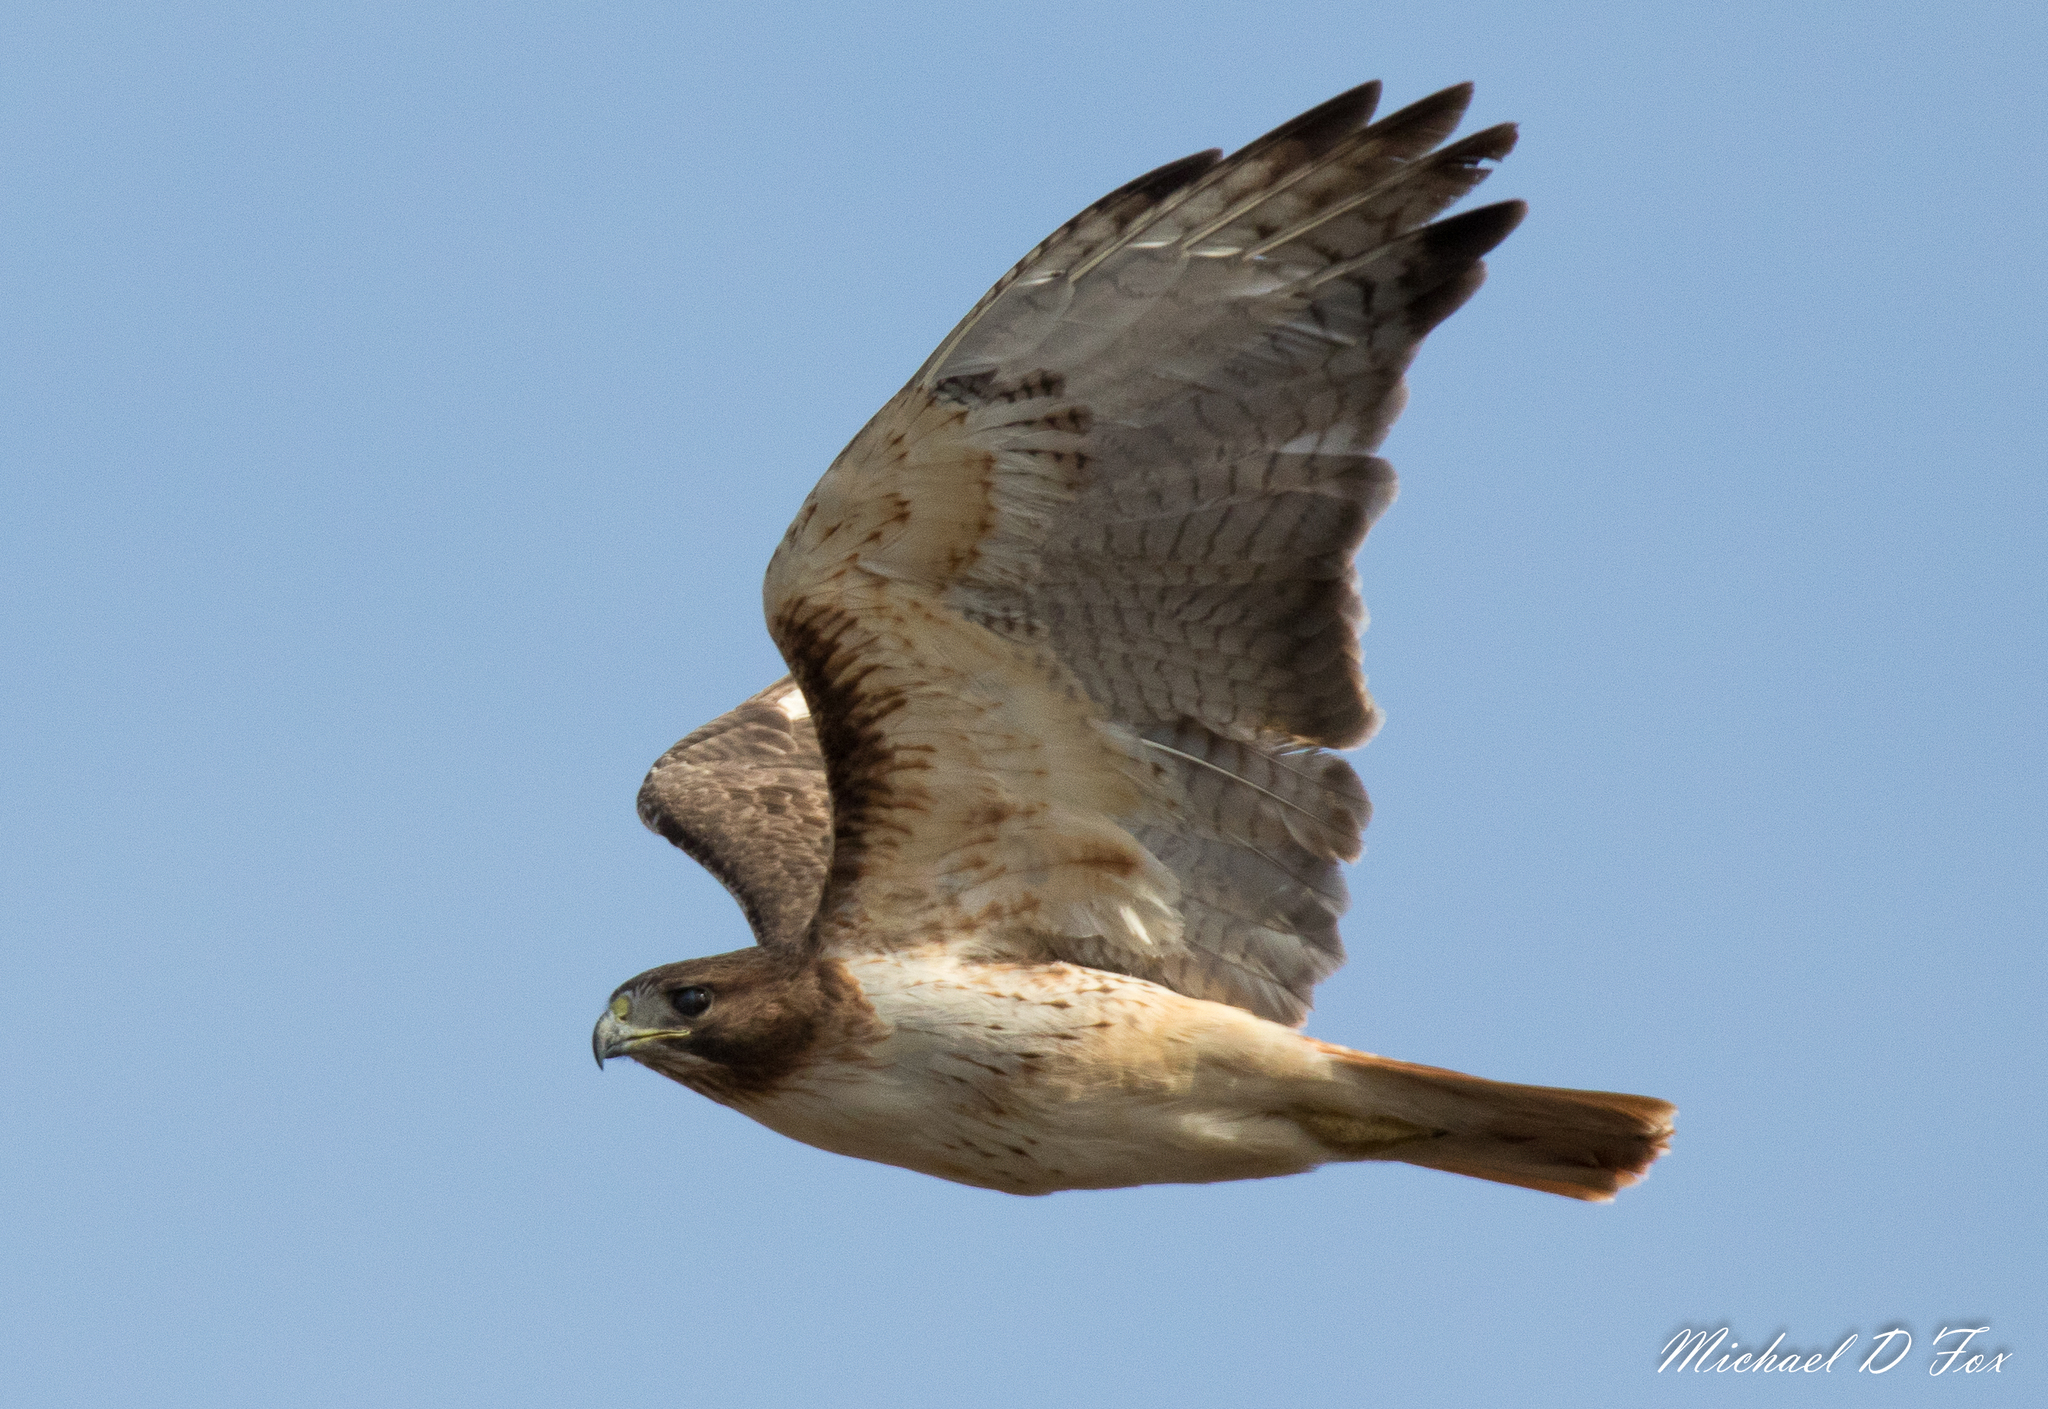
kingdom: Animalia
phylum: Chordata
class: Aves
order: Accipitriformes
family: Accipitridae
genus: Buteo
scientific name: Buteo jamaicensis
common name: Red-tailed hawk
